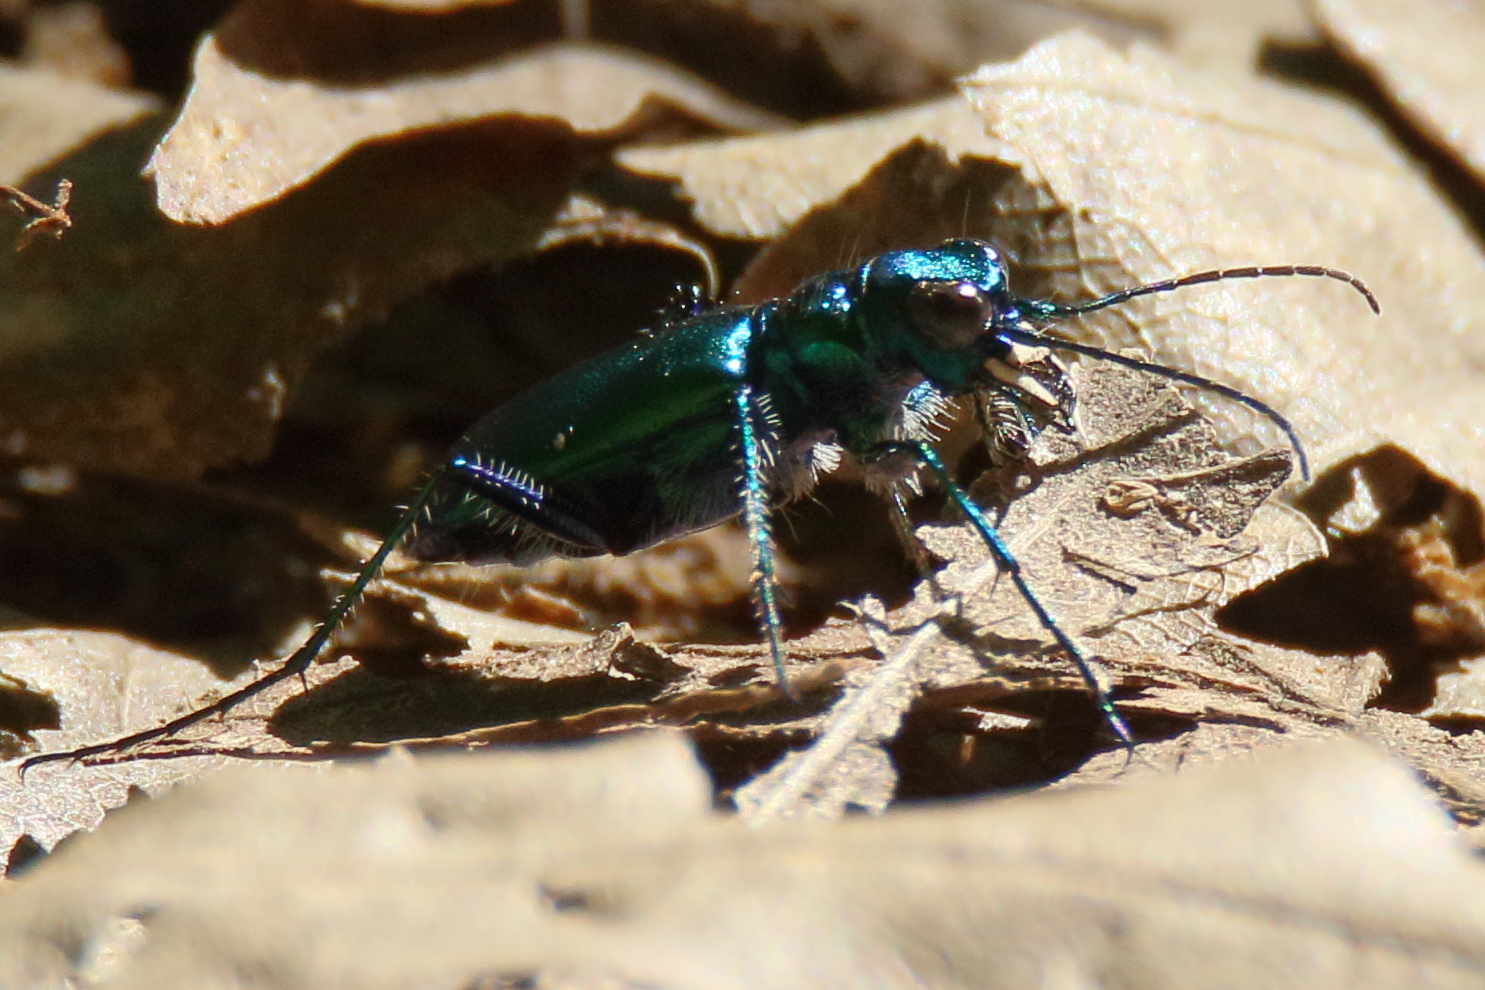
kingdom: Animalia
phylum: Arthropoda
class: Insecta
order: Coleoptera
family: Carabidae
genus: Cicindela
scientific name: Cicindela sexguttata
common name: Six-spotted tiger beetle
